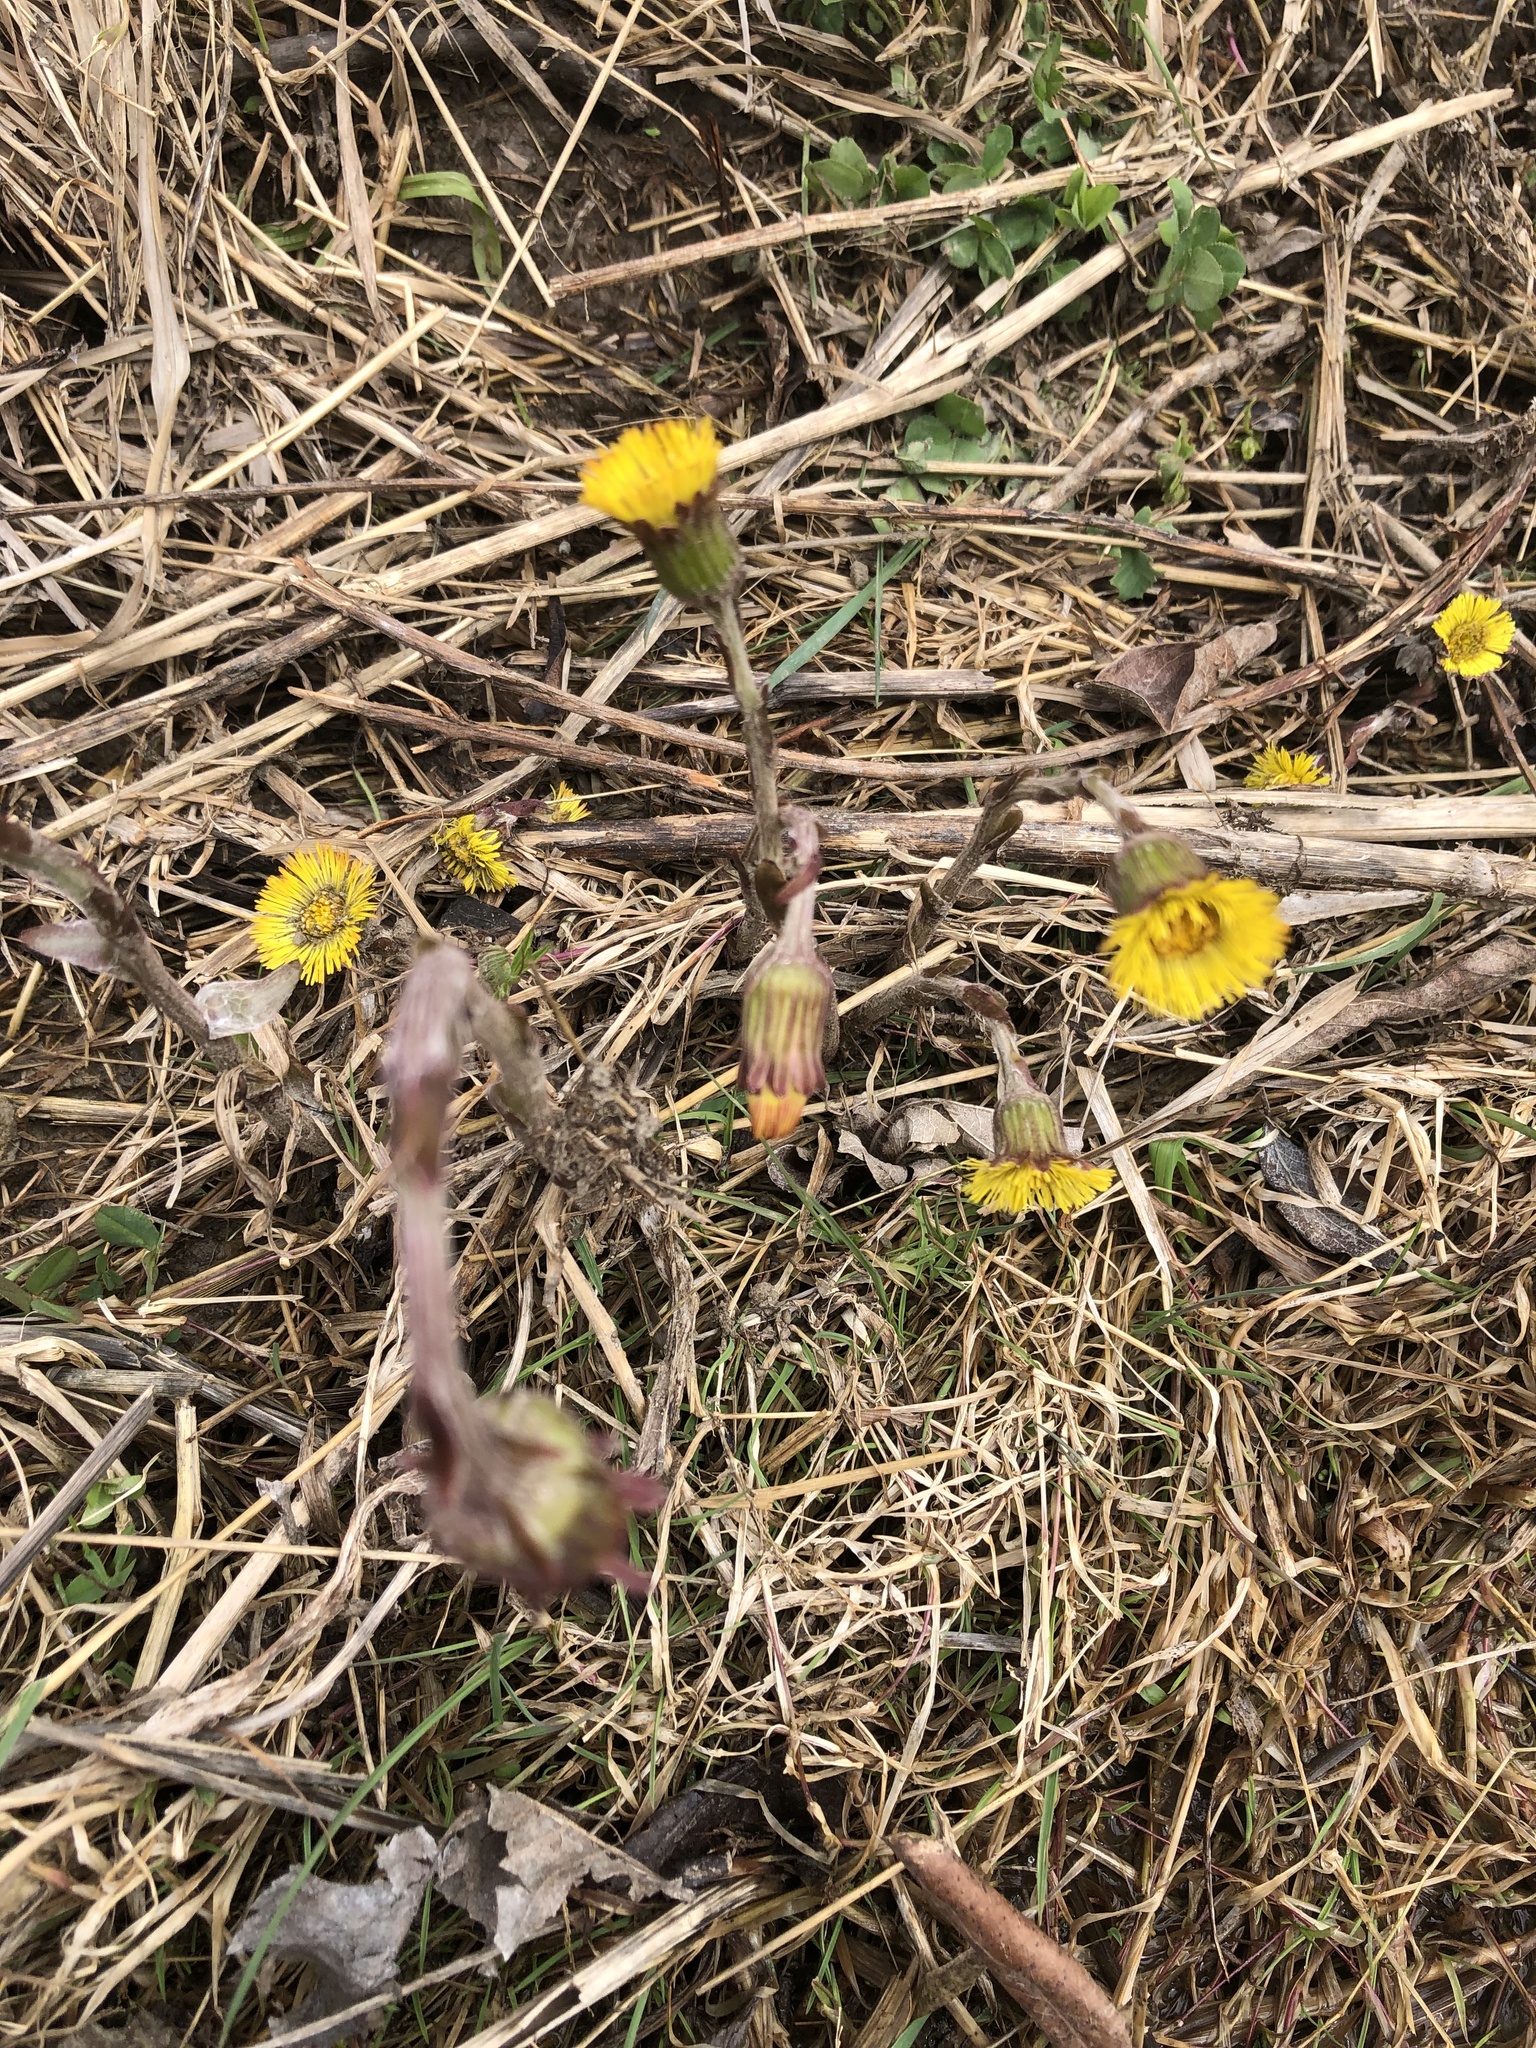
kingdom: Plantae
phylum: Tracheophyta
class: Magnoliopsida
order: Asterales
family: Asteraceae
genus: Tussilago
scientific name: Tussilago farfara
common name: Coltsfoot
